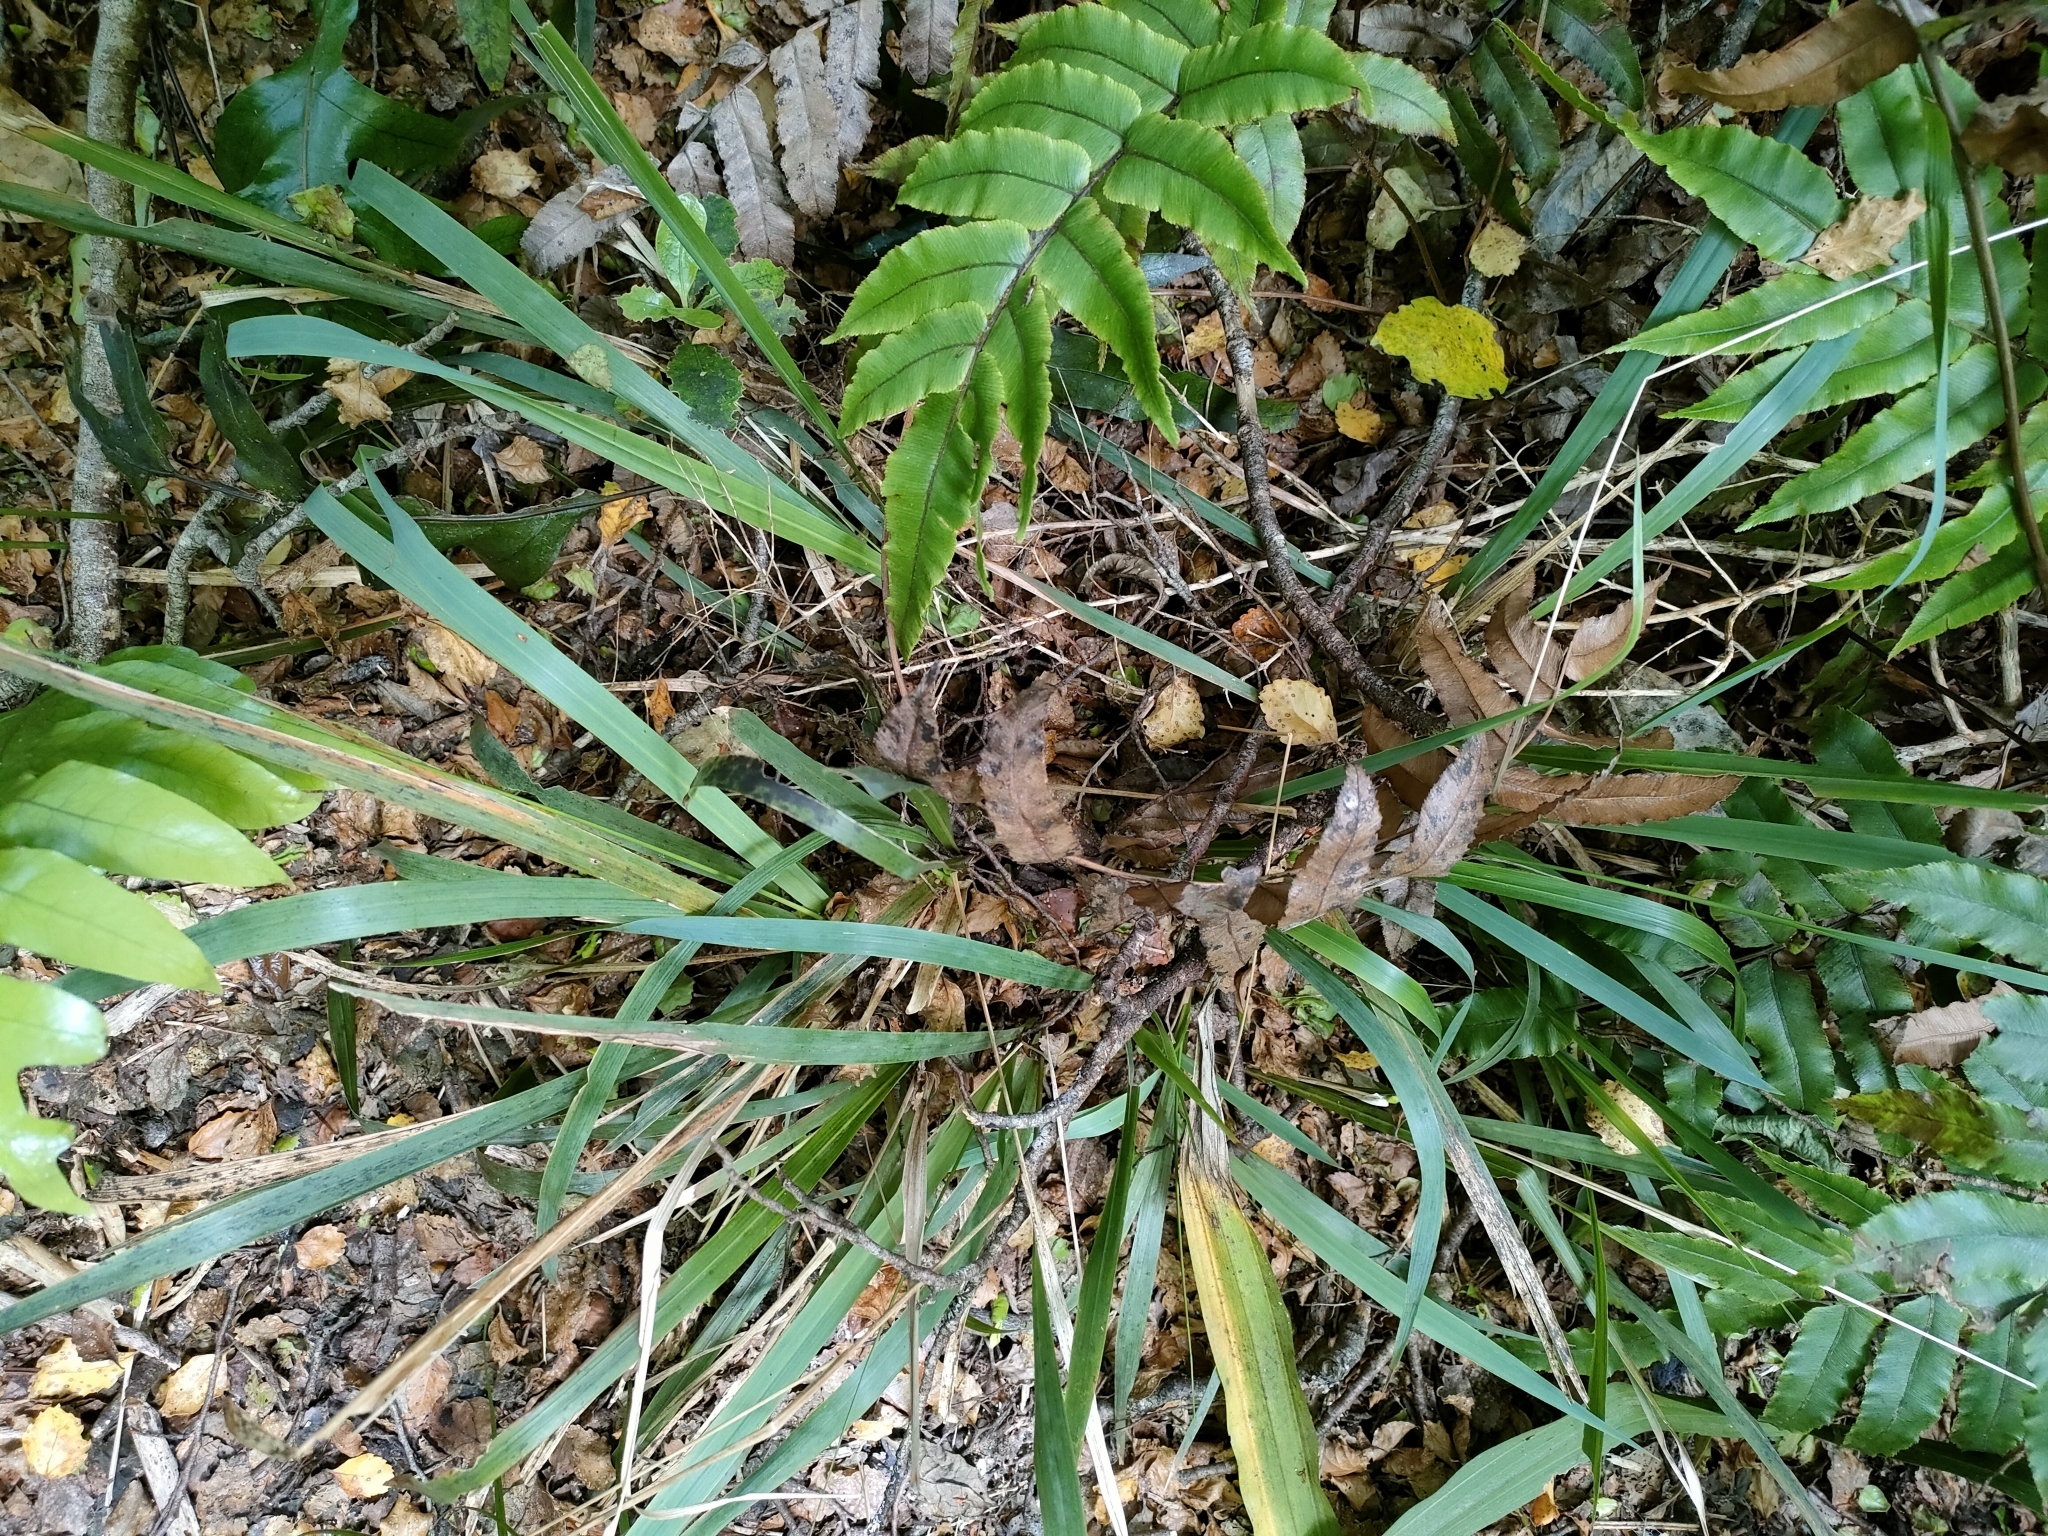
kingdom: Plantae
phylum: Tracheophyta
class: Liliopsida
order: Poales
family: Poaceae
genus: Ehrharta
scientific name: Ehrharta diplax
